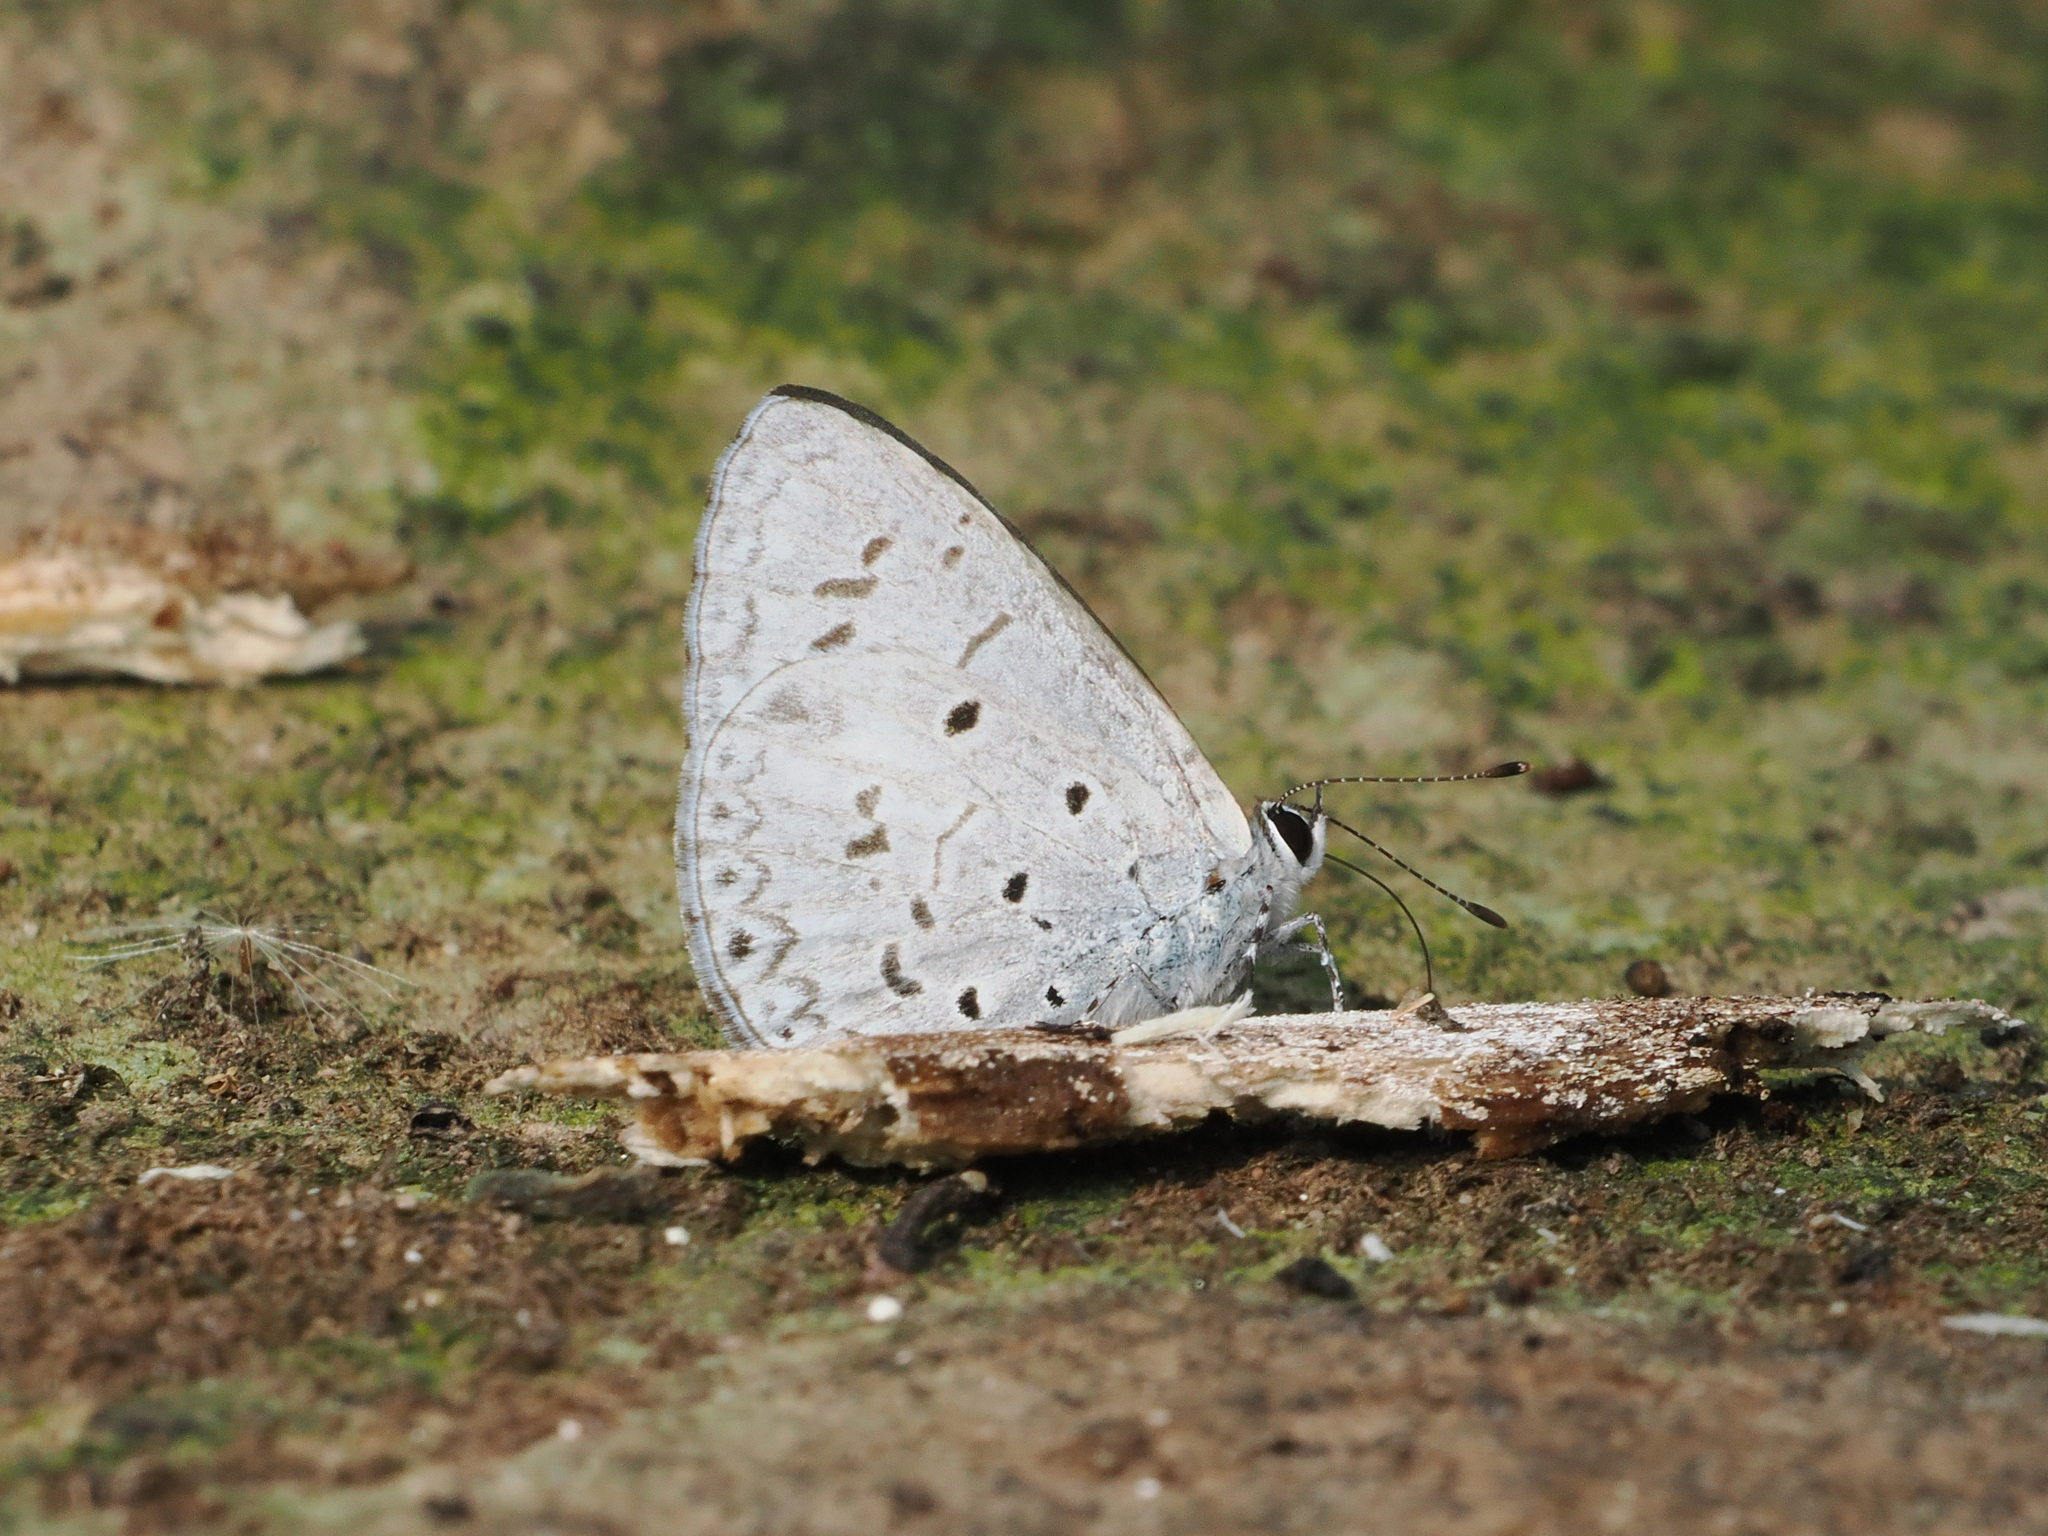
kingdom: Animalia
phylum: Arthropoda
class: Insecta
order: Lepidoptera
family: Lycaenidae
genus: Acytolepis
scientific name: Acytolepis puspa
